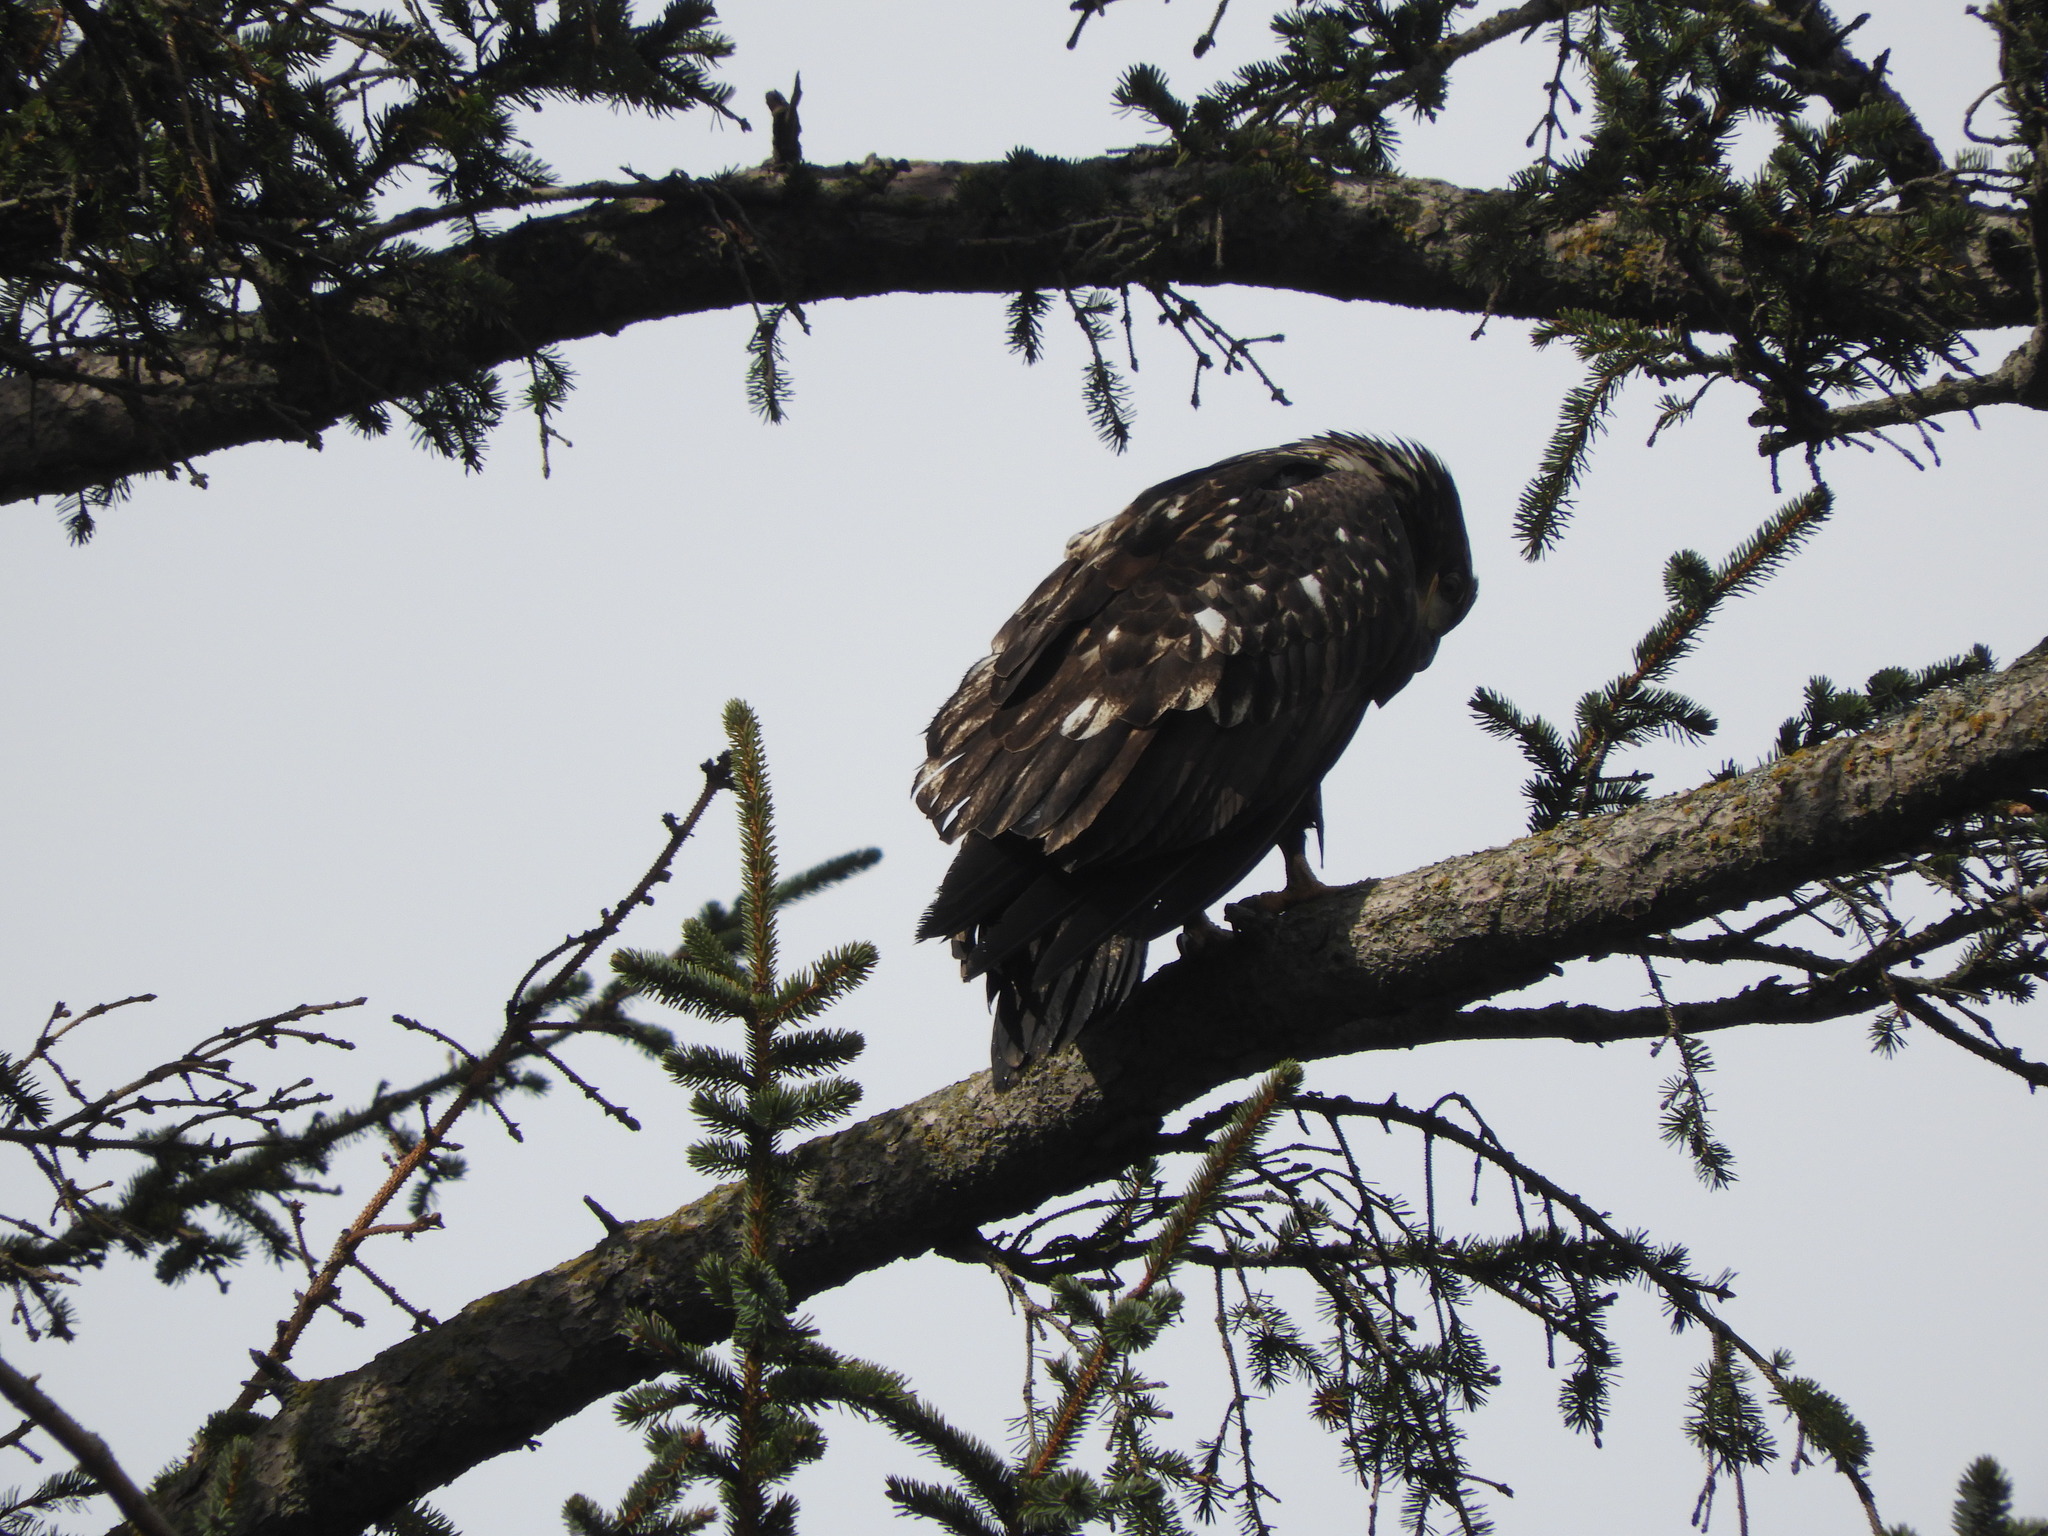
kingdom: Animalia
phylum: Chordata
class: Aves
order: Accipitriformes
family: Accipitridae
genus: Haliaeetus
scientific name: Haliaeetus leucocephalus
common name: Bald eagle
